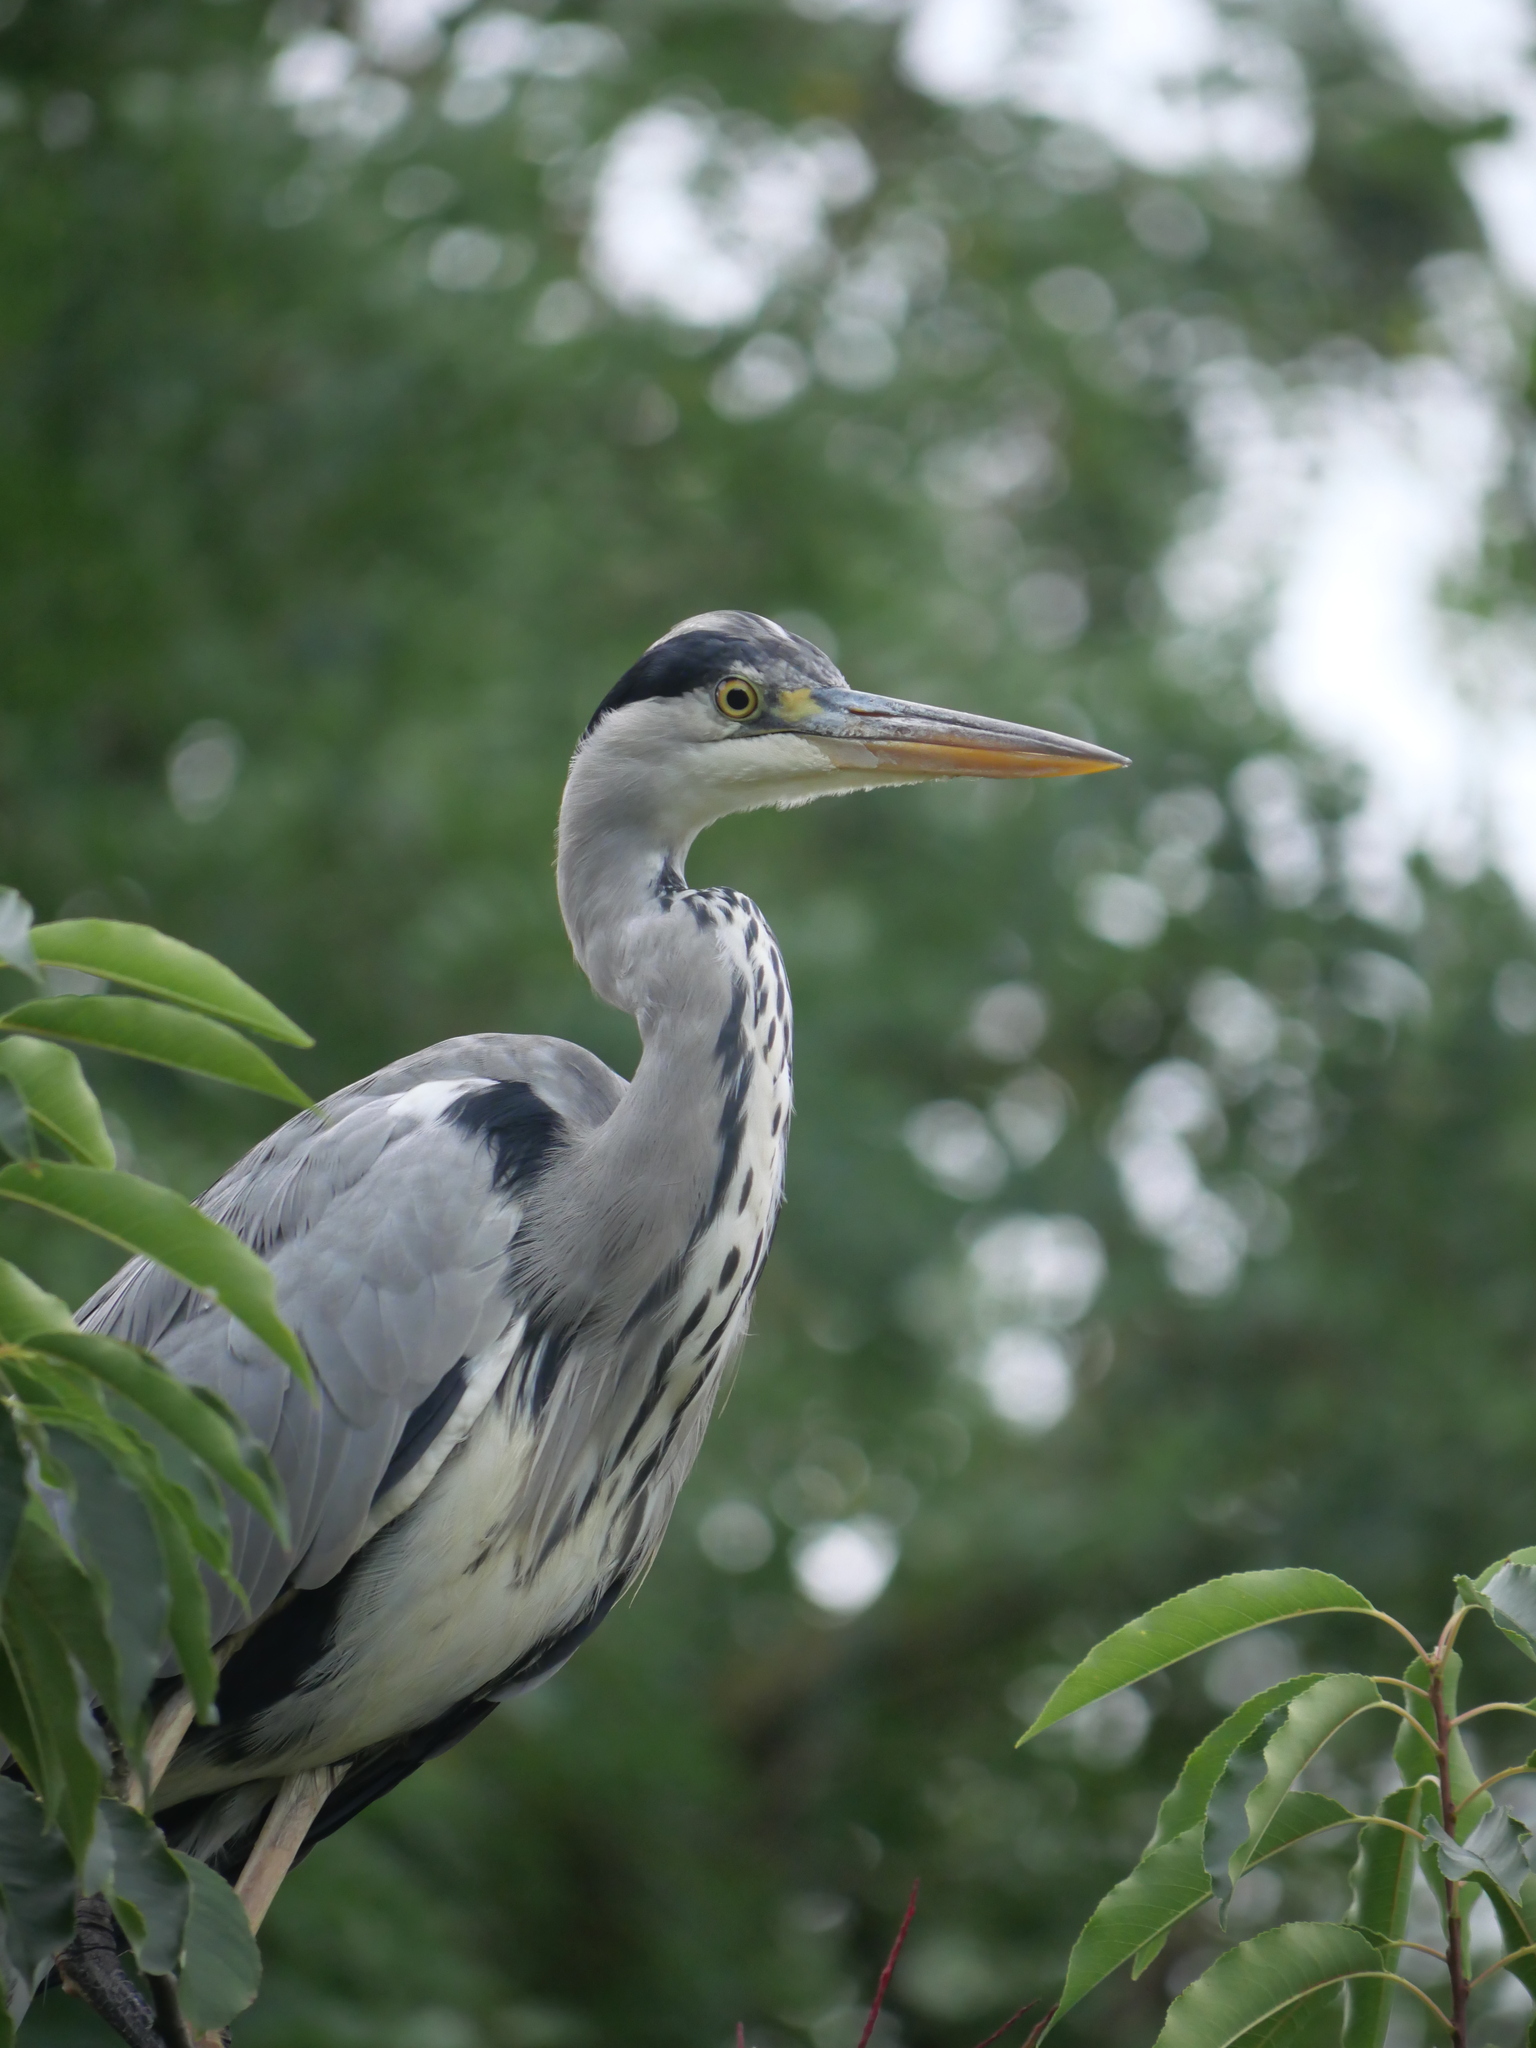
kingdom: Animalia
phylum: Chordata
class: Aves
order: Pelecaniformes
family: Ardeidae
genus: Ardea
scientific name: Ardea cinerea
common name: Grey heron
